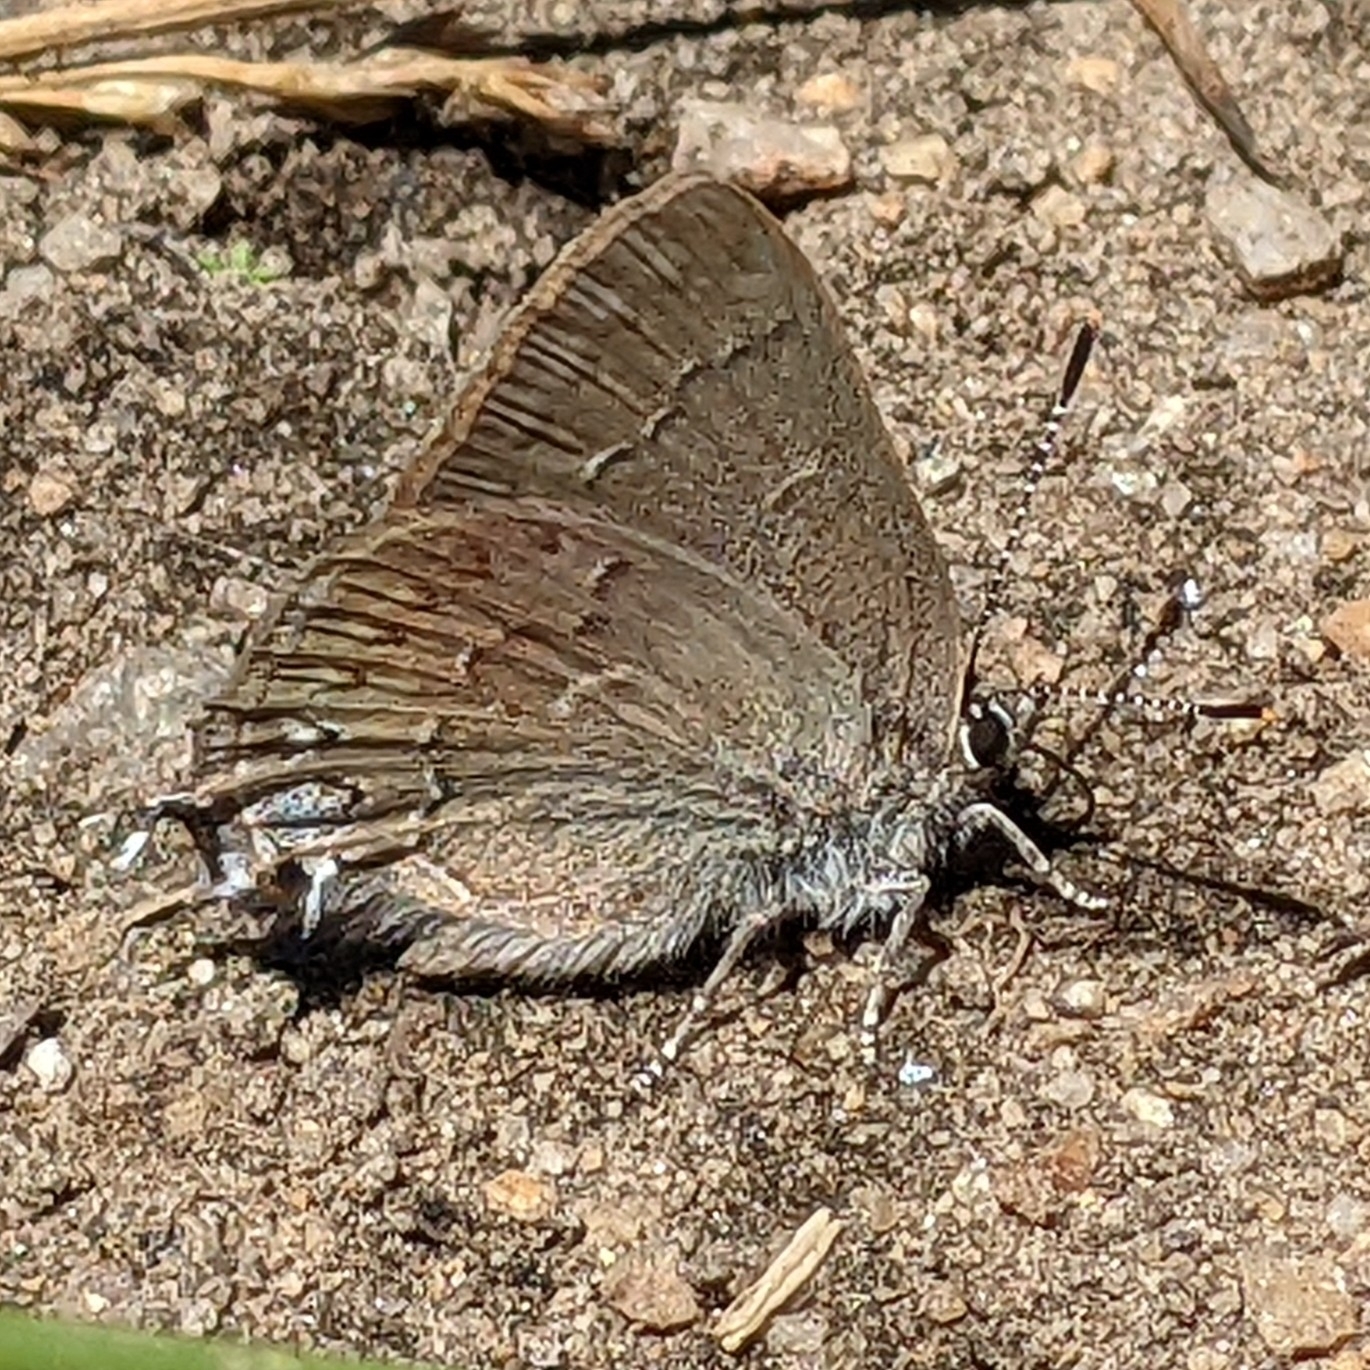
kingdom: Animalia
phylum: Arthropoda
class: Insecta
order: Lepidoptera
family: Lycaenidae
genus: Strymon
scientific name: Strymon saepium
